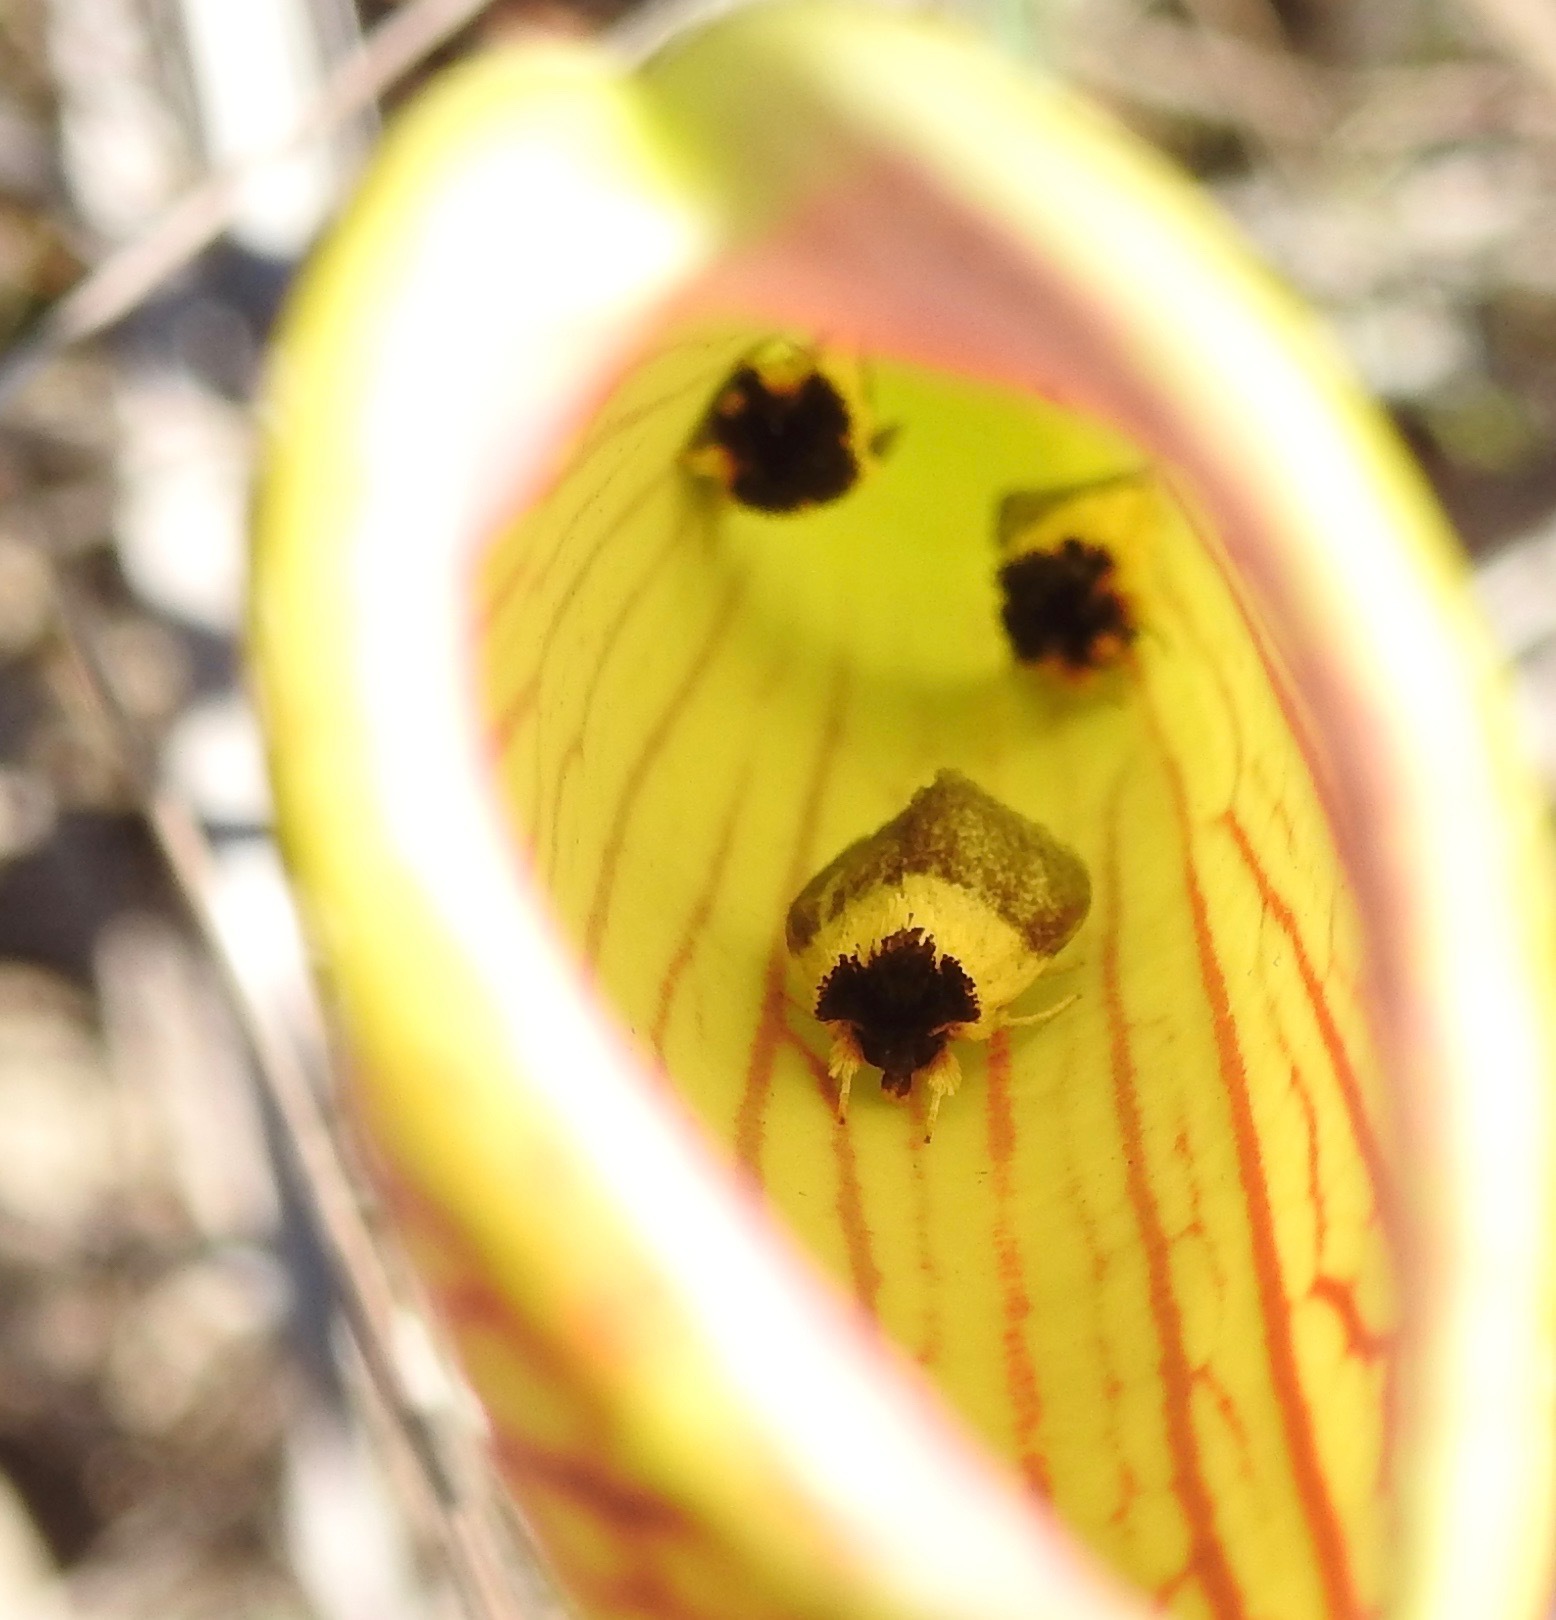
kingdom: Animalia
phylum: Arthropoda
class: Insecta
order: Lepidoptera
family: Noctuidae
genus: Exyra
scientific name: Exyra semicrocea
